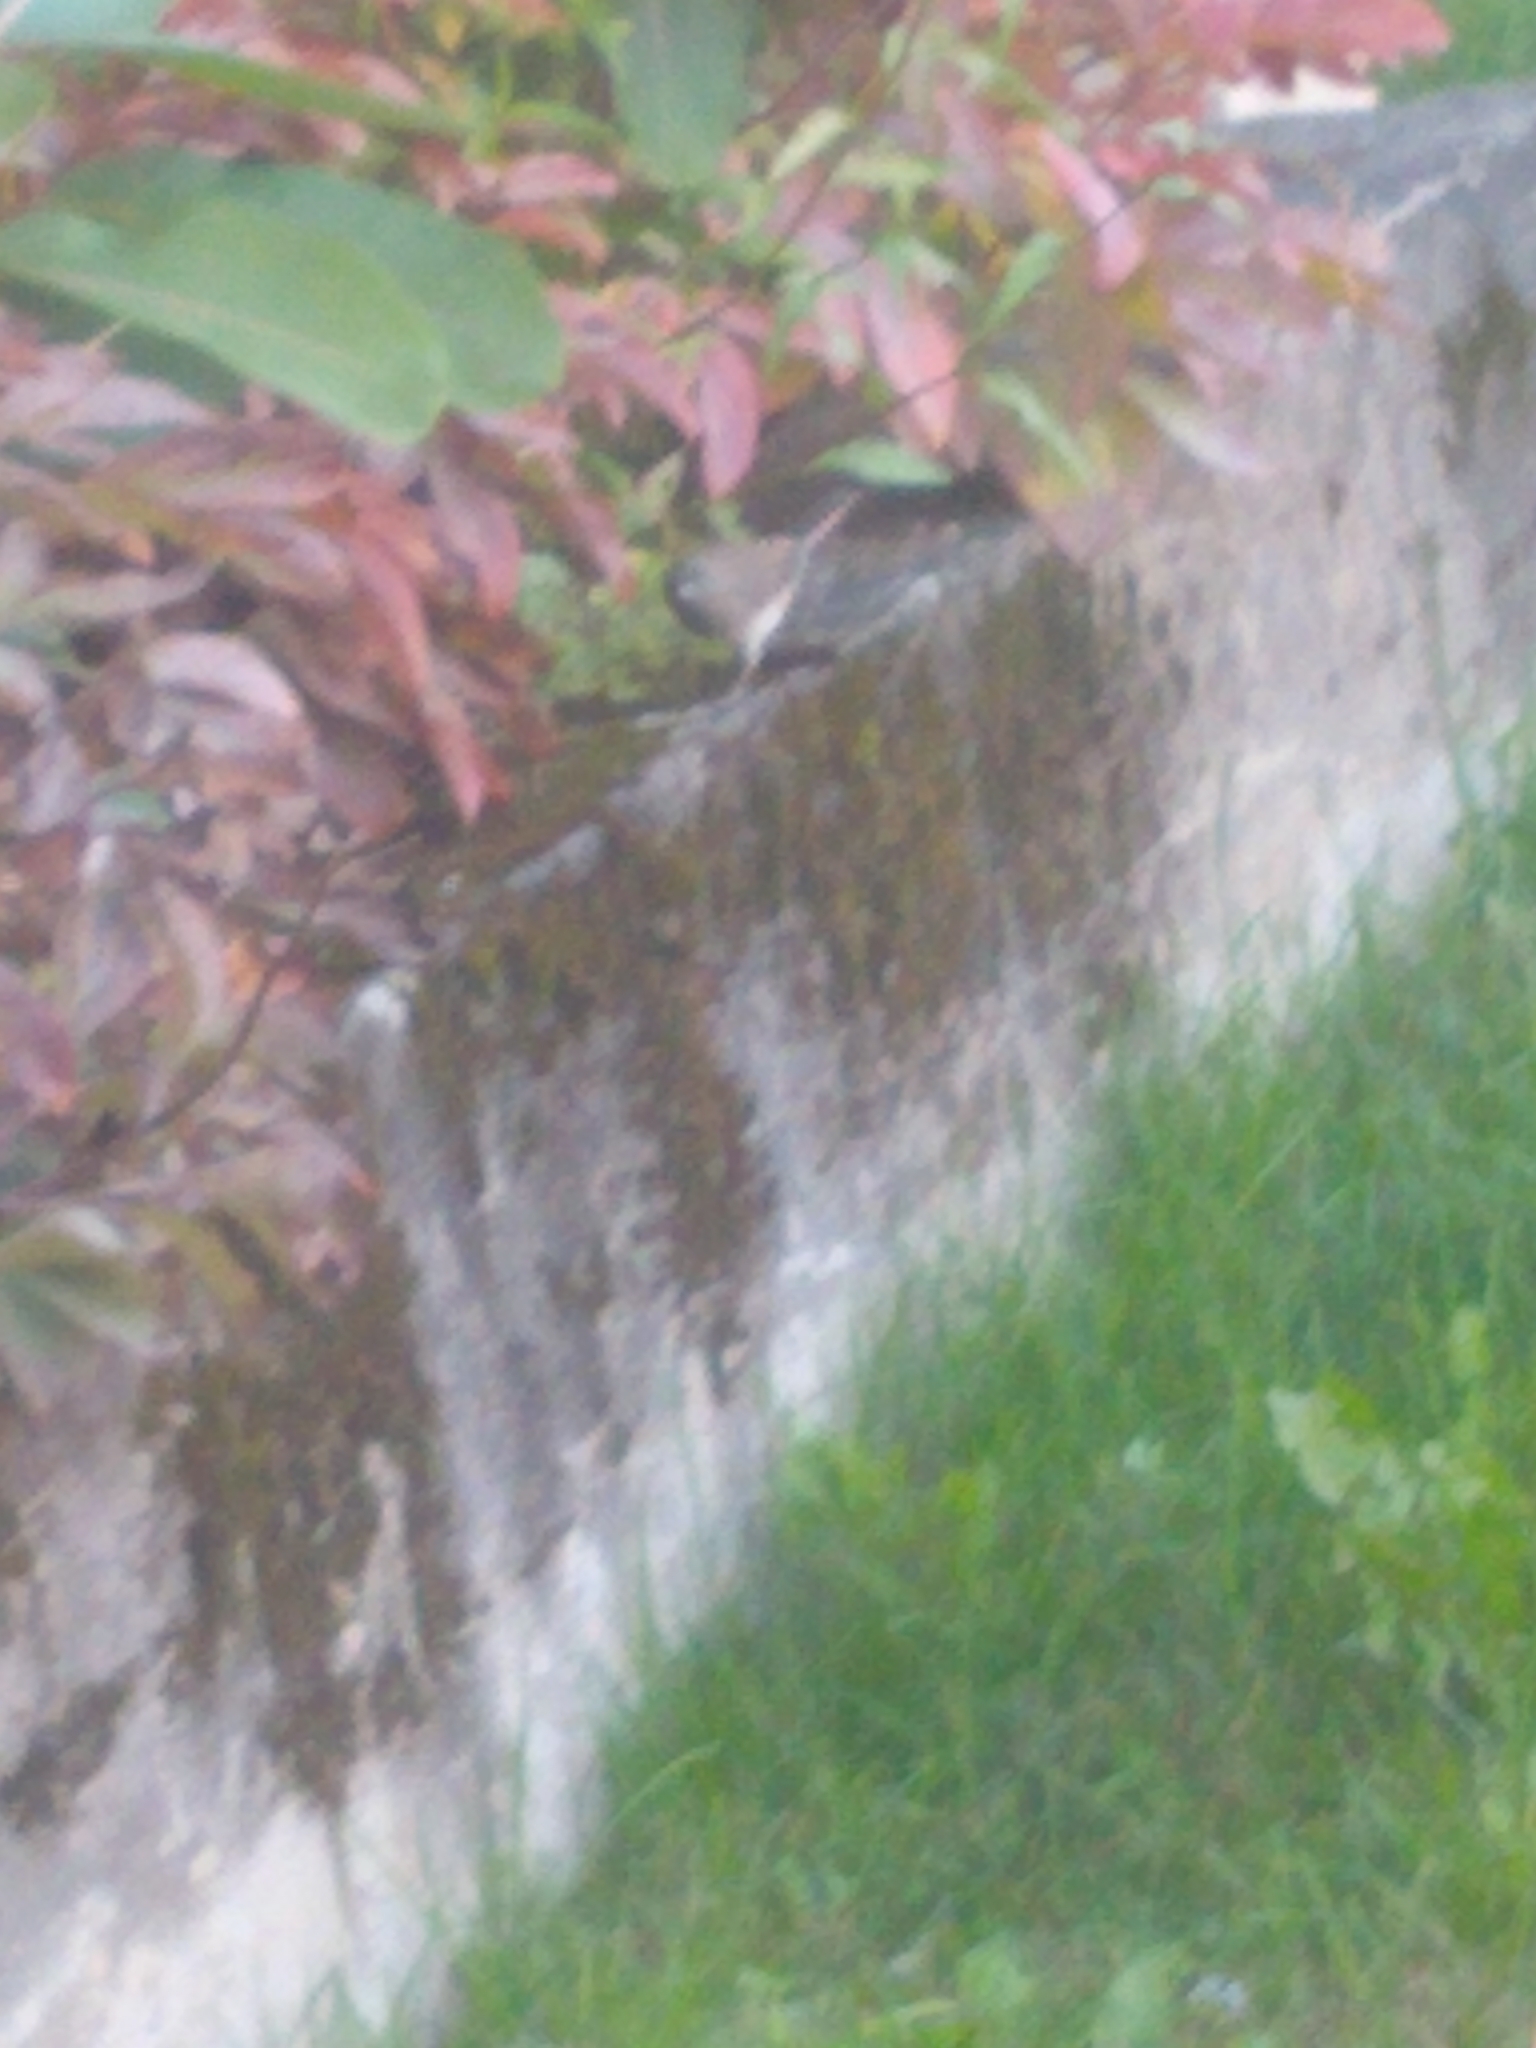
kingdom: Animalia
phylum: Chordata
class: Aves
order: Passeriformes
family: Passerellidae
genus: Junco
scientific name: Junco hyemalis
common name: Dark-eyed junco
